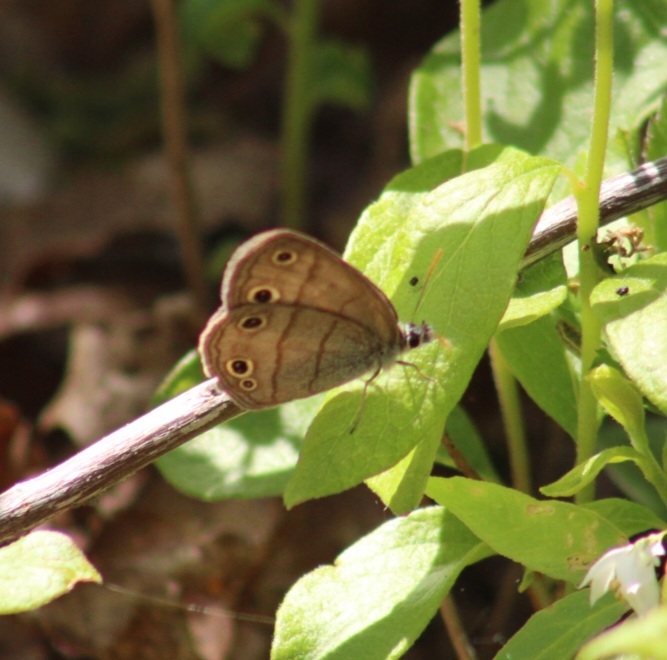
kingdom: Animalia
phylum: Arthropoda
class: Insecta
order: Lepidoptera
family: Nymphalidae
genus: Euptychia
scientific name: Euptychia cymela
